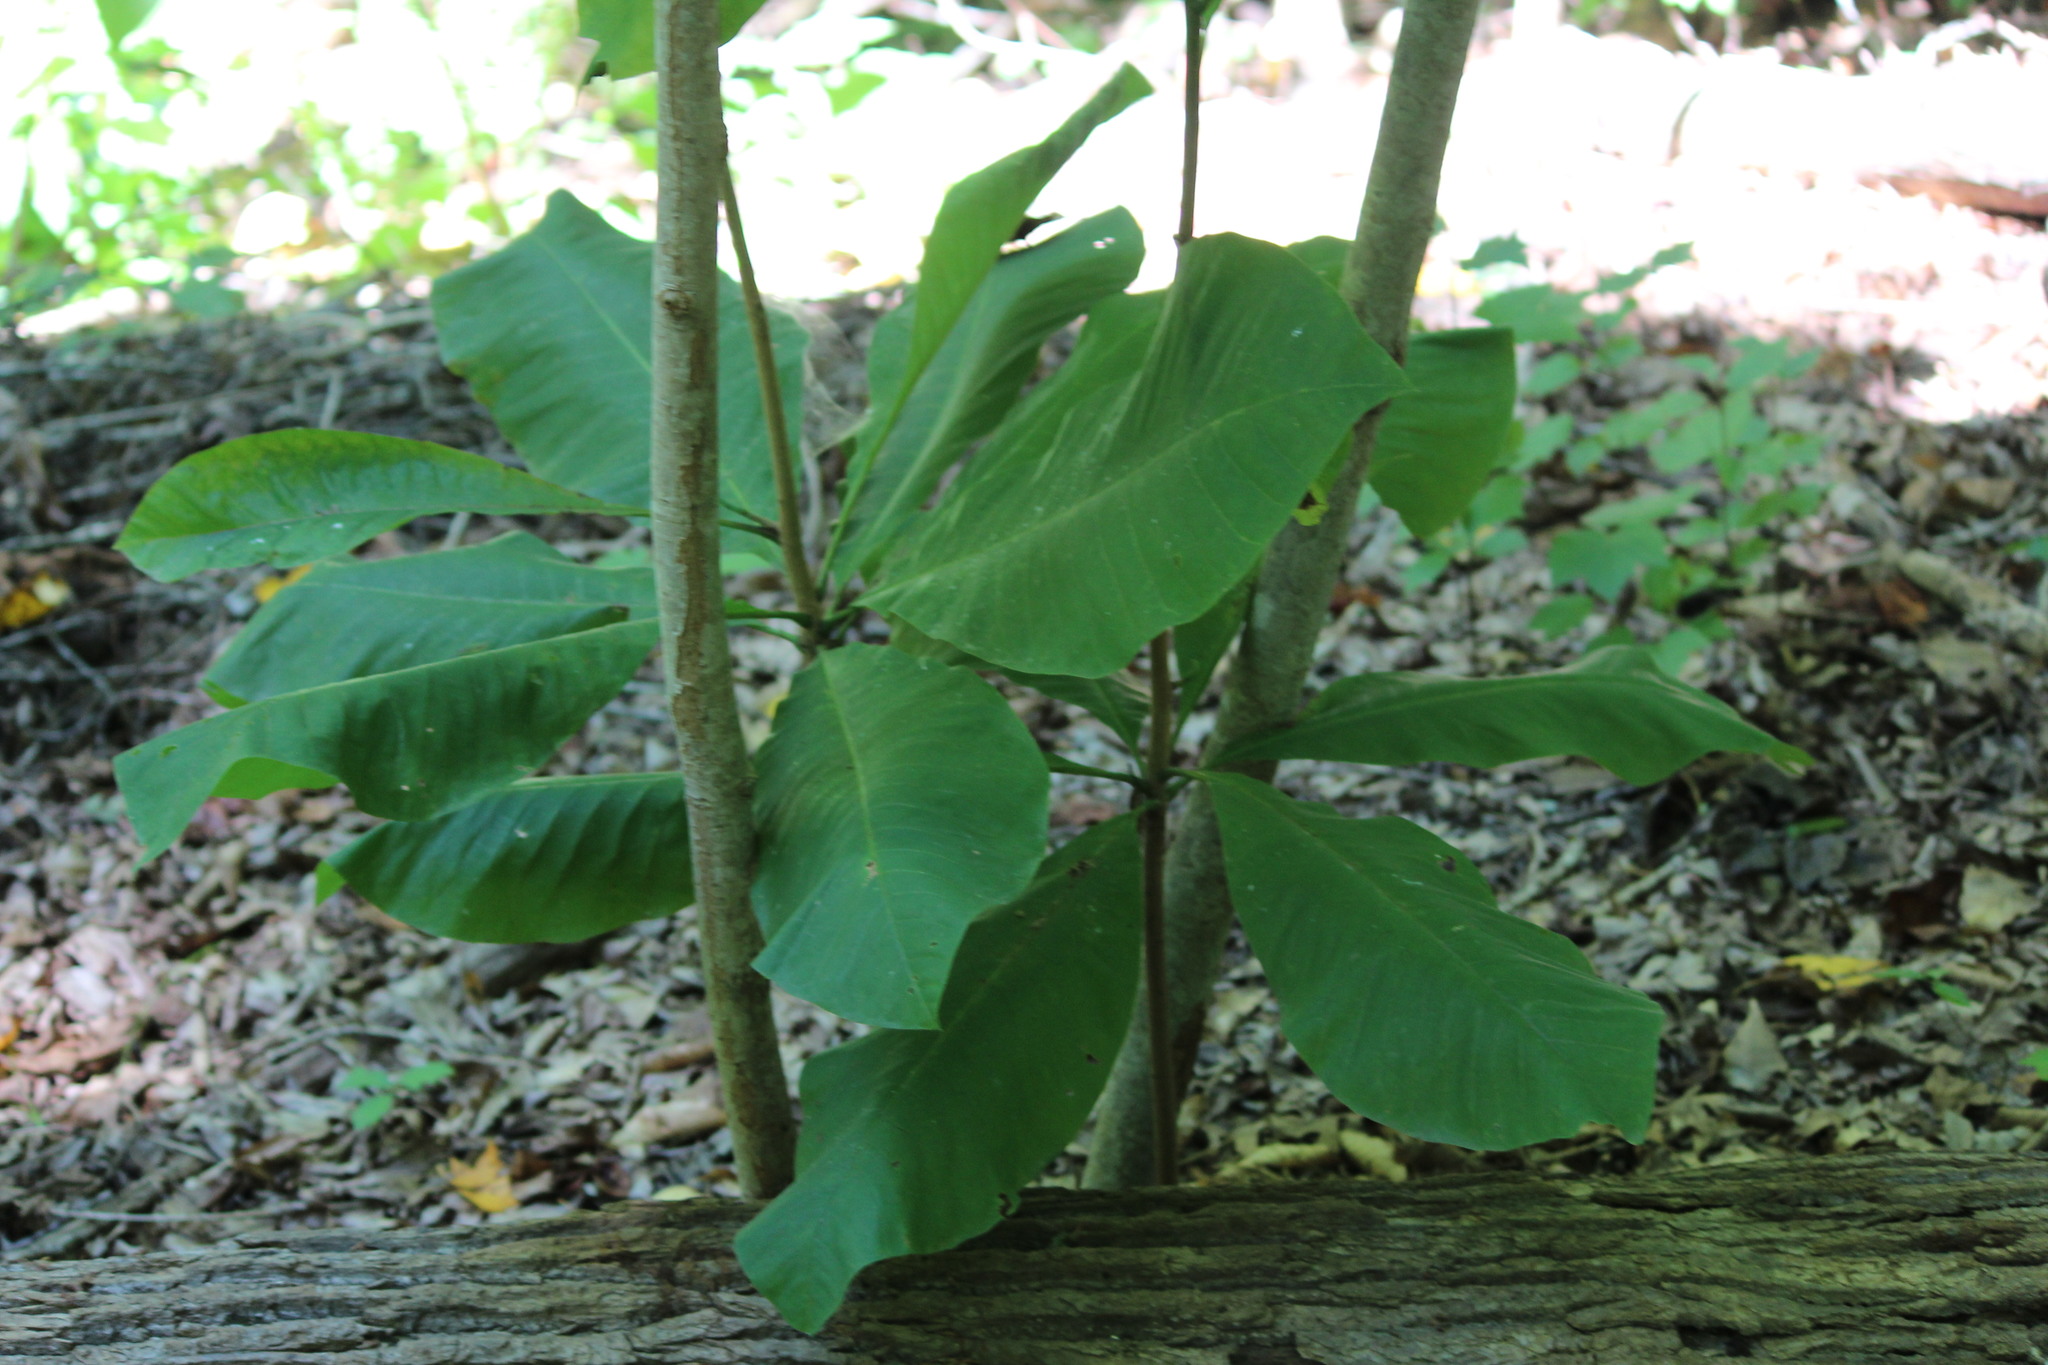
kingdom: Plantae
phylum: Tracheophyta
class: Magnoliopsida
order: Magnoliales
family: Magnoliaceae
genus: Magnolia
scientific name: Magnolia tripetala
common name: Umbrella magnolia
